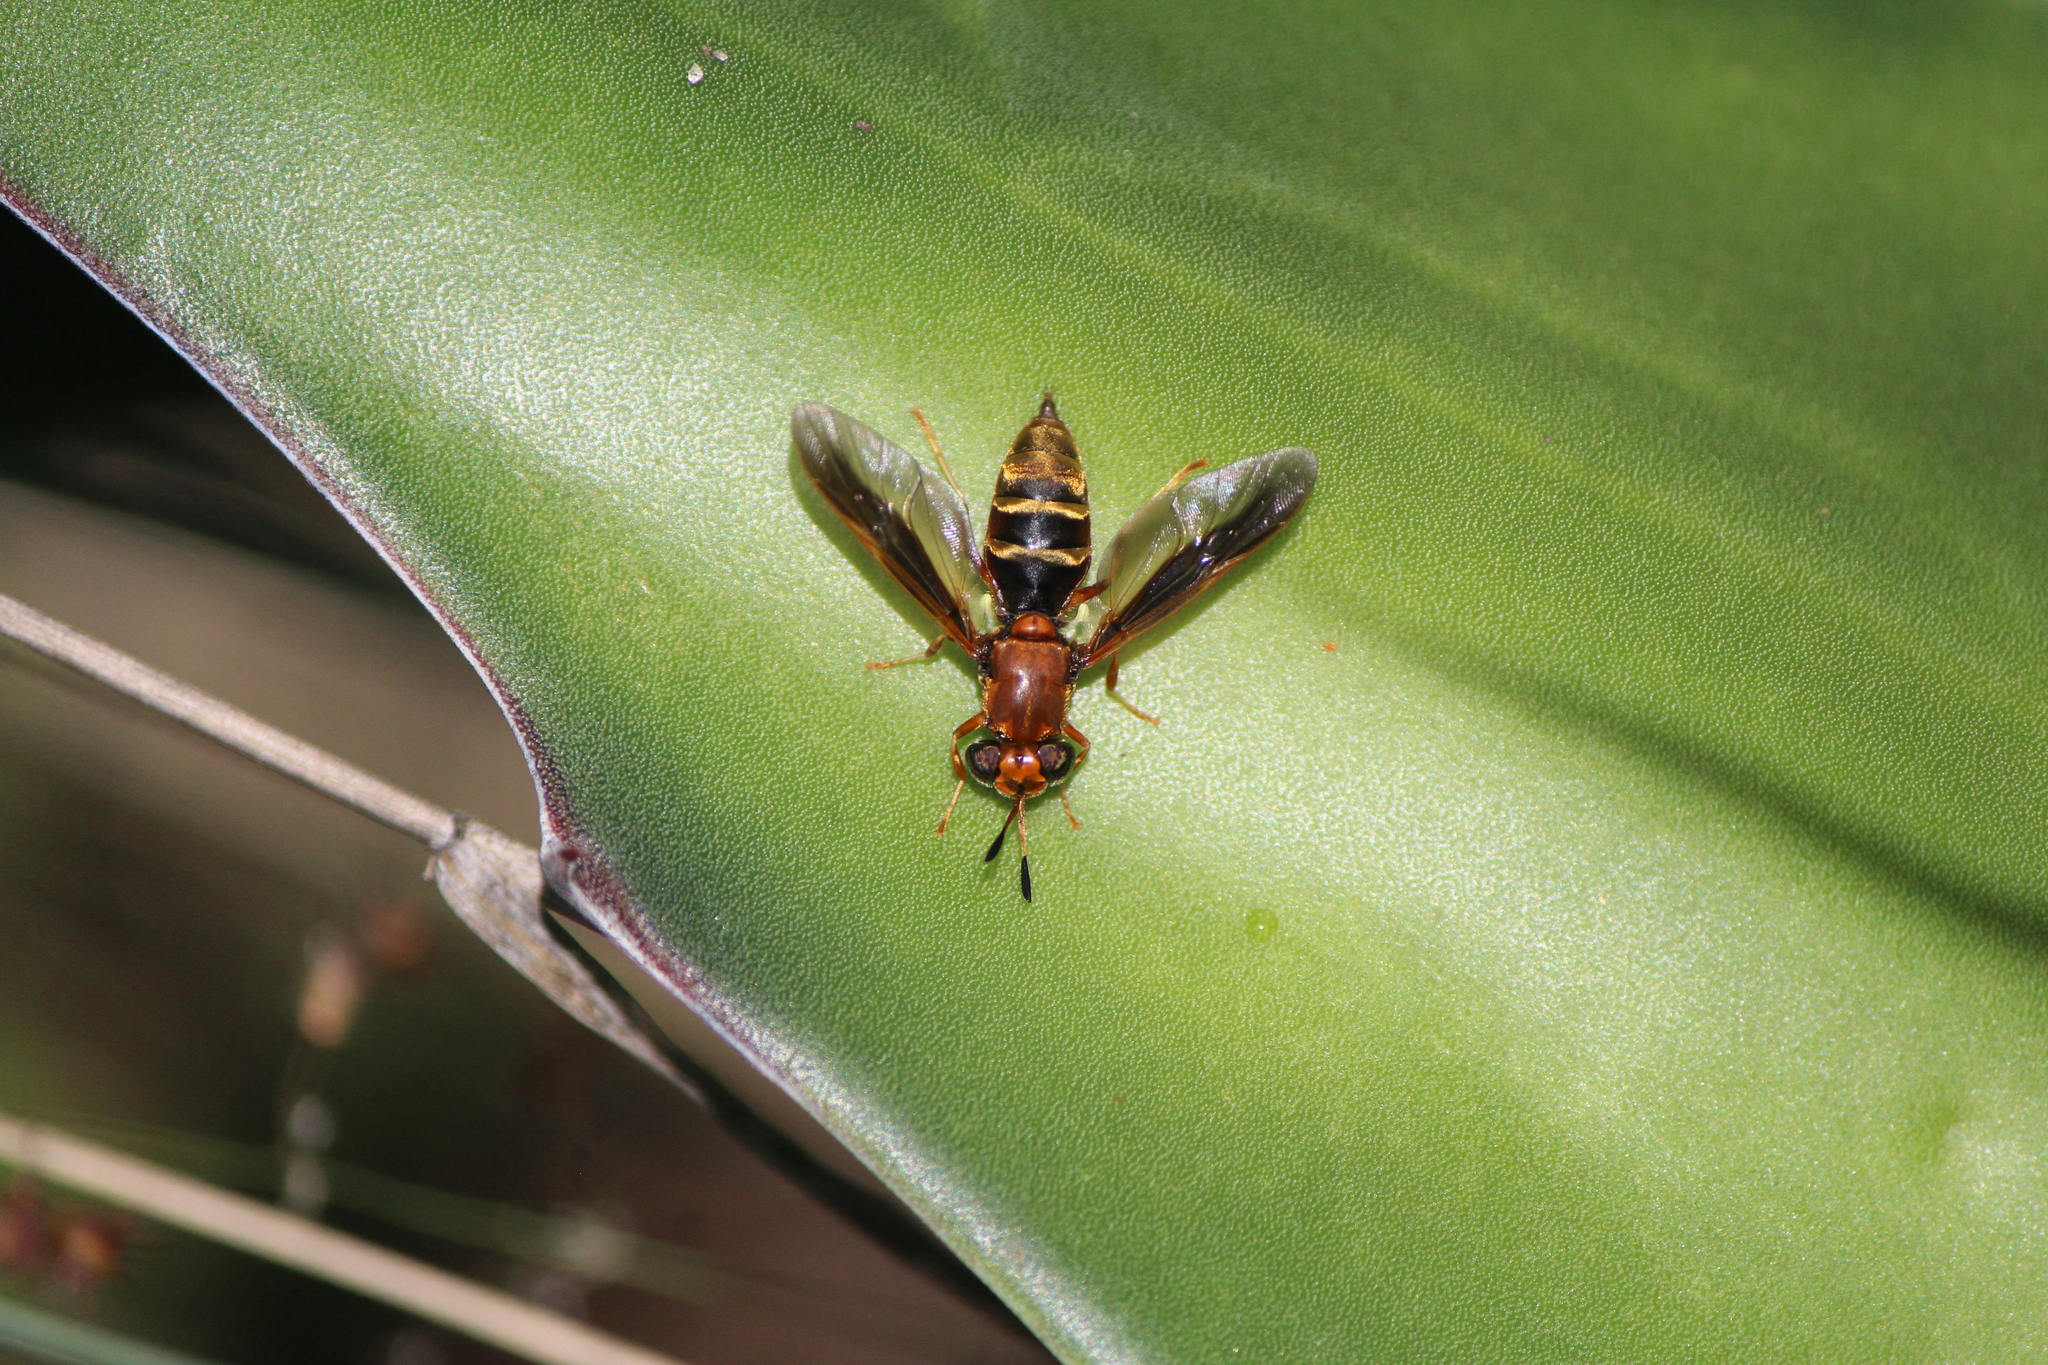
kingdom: Animalia
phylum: Arthropoda
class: Insecta
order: Diptera
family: Stratiomyidae
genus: Hermetia
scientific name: Hermetia comstocki
